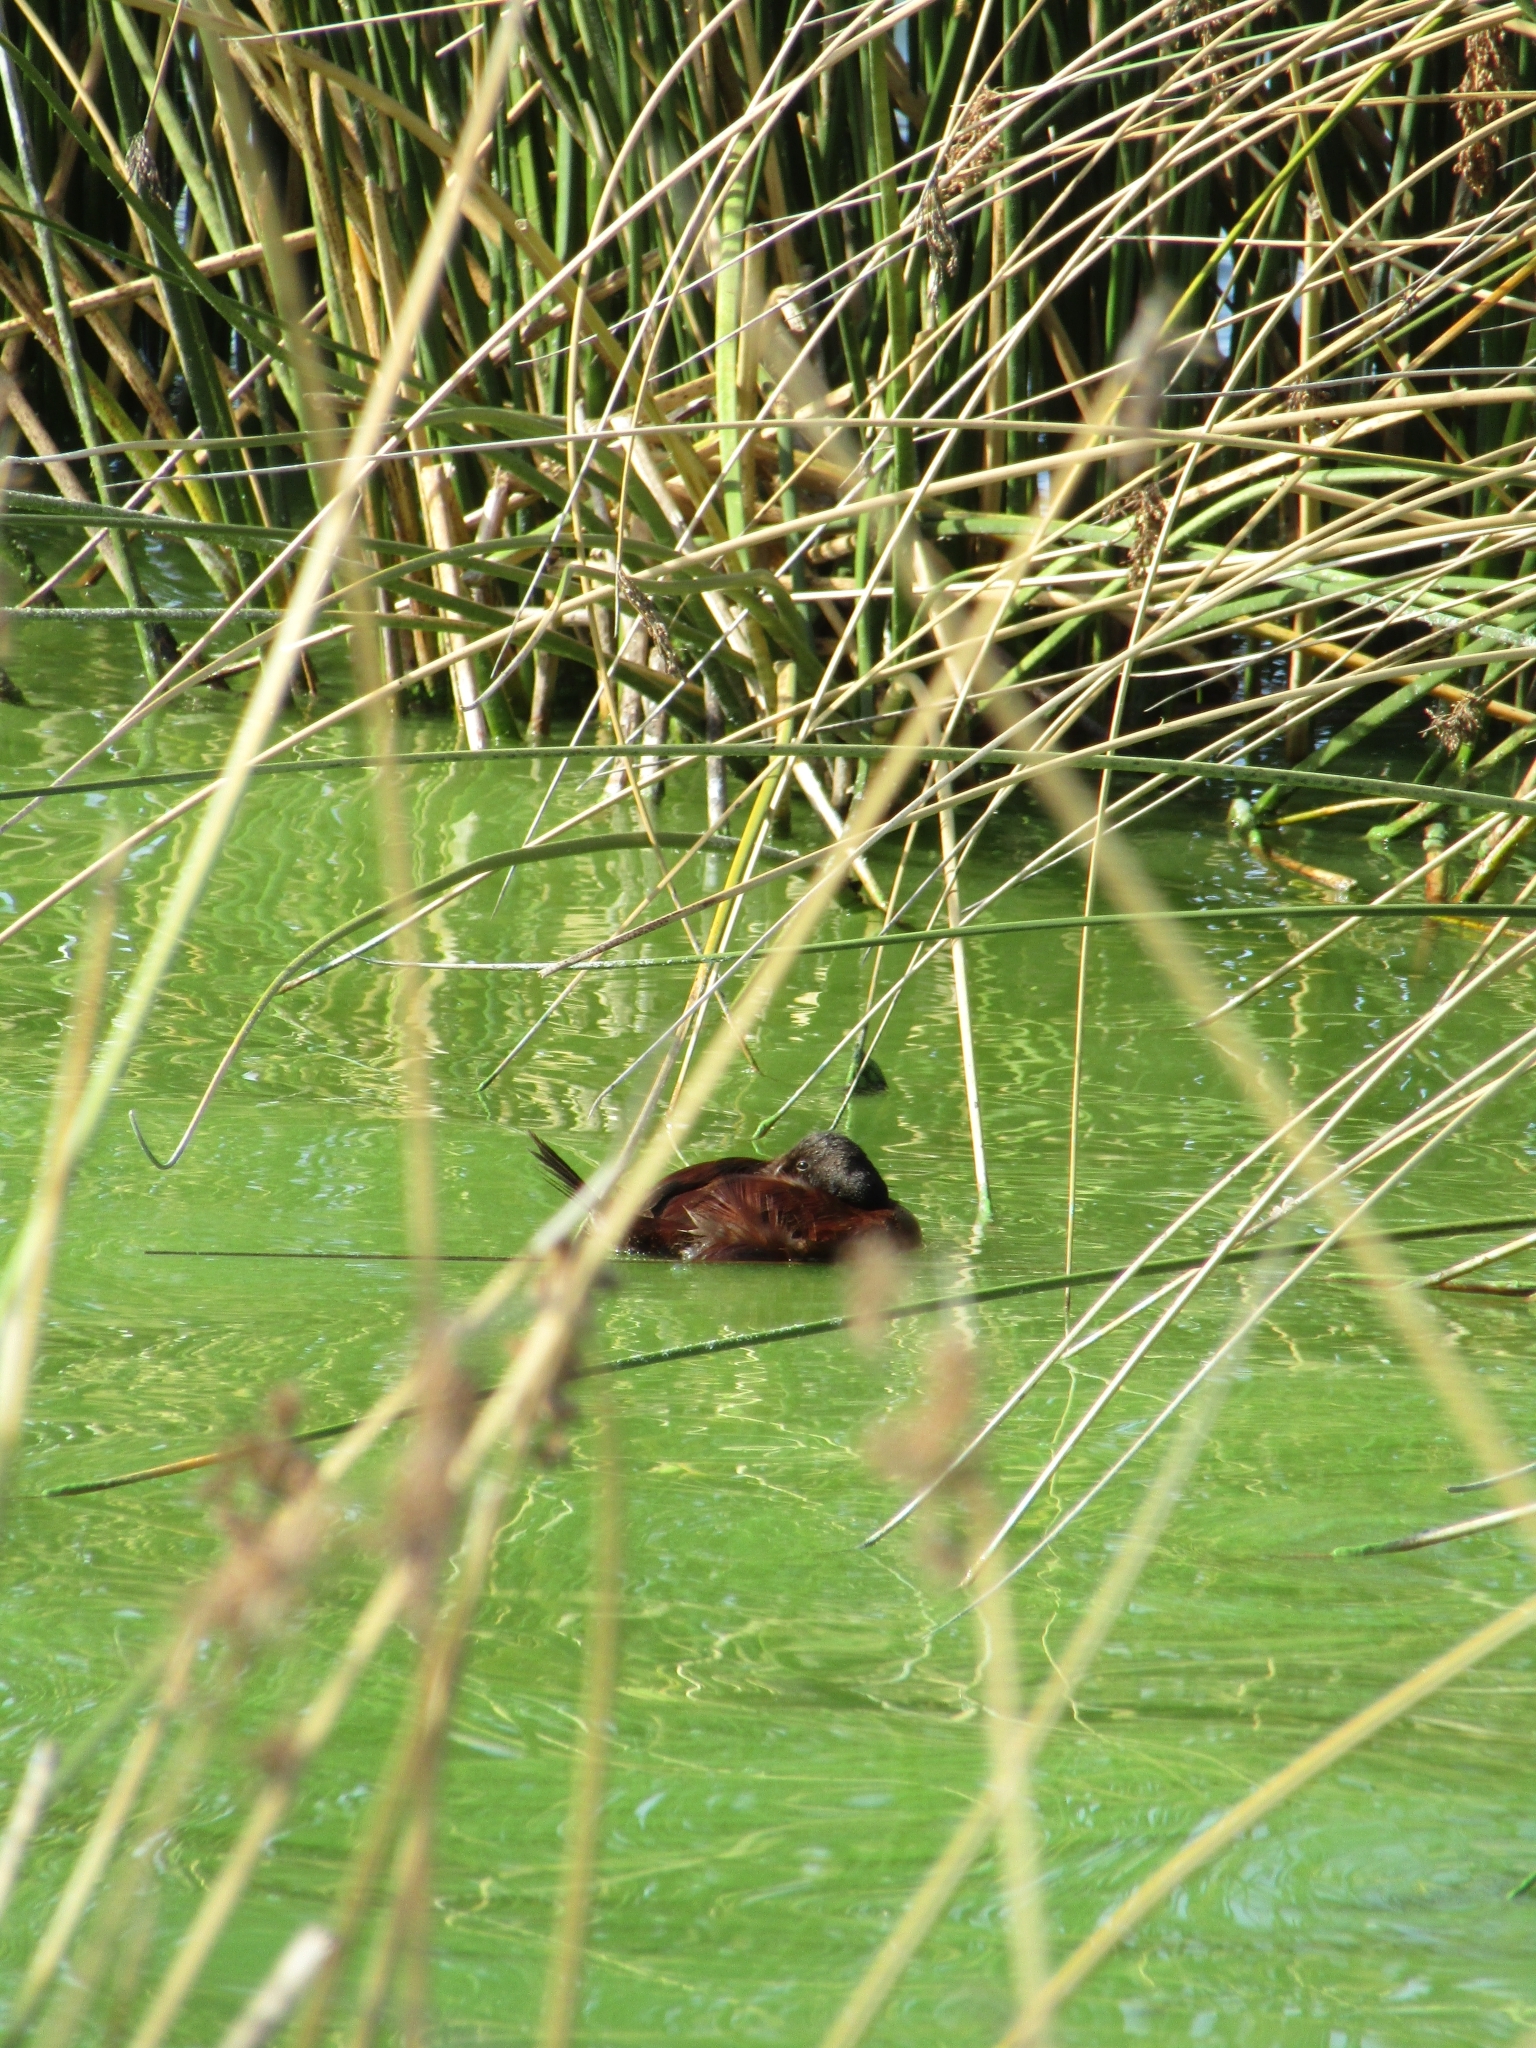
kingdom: Animalia
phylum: Chordata
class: Aves
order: Anseriformes
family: Anatidae
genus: Oxyura
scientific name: Oxyura vittata
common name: Lake duck
